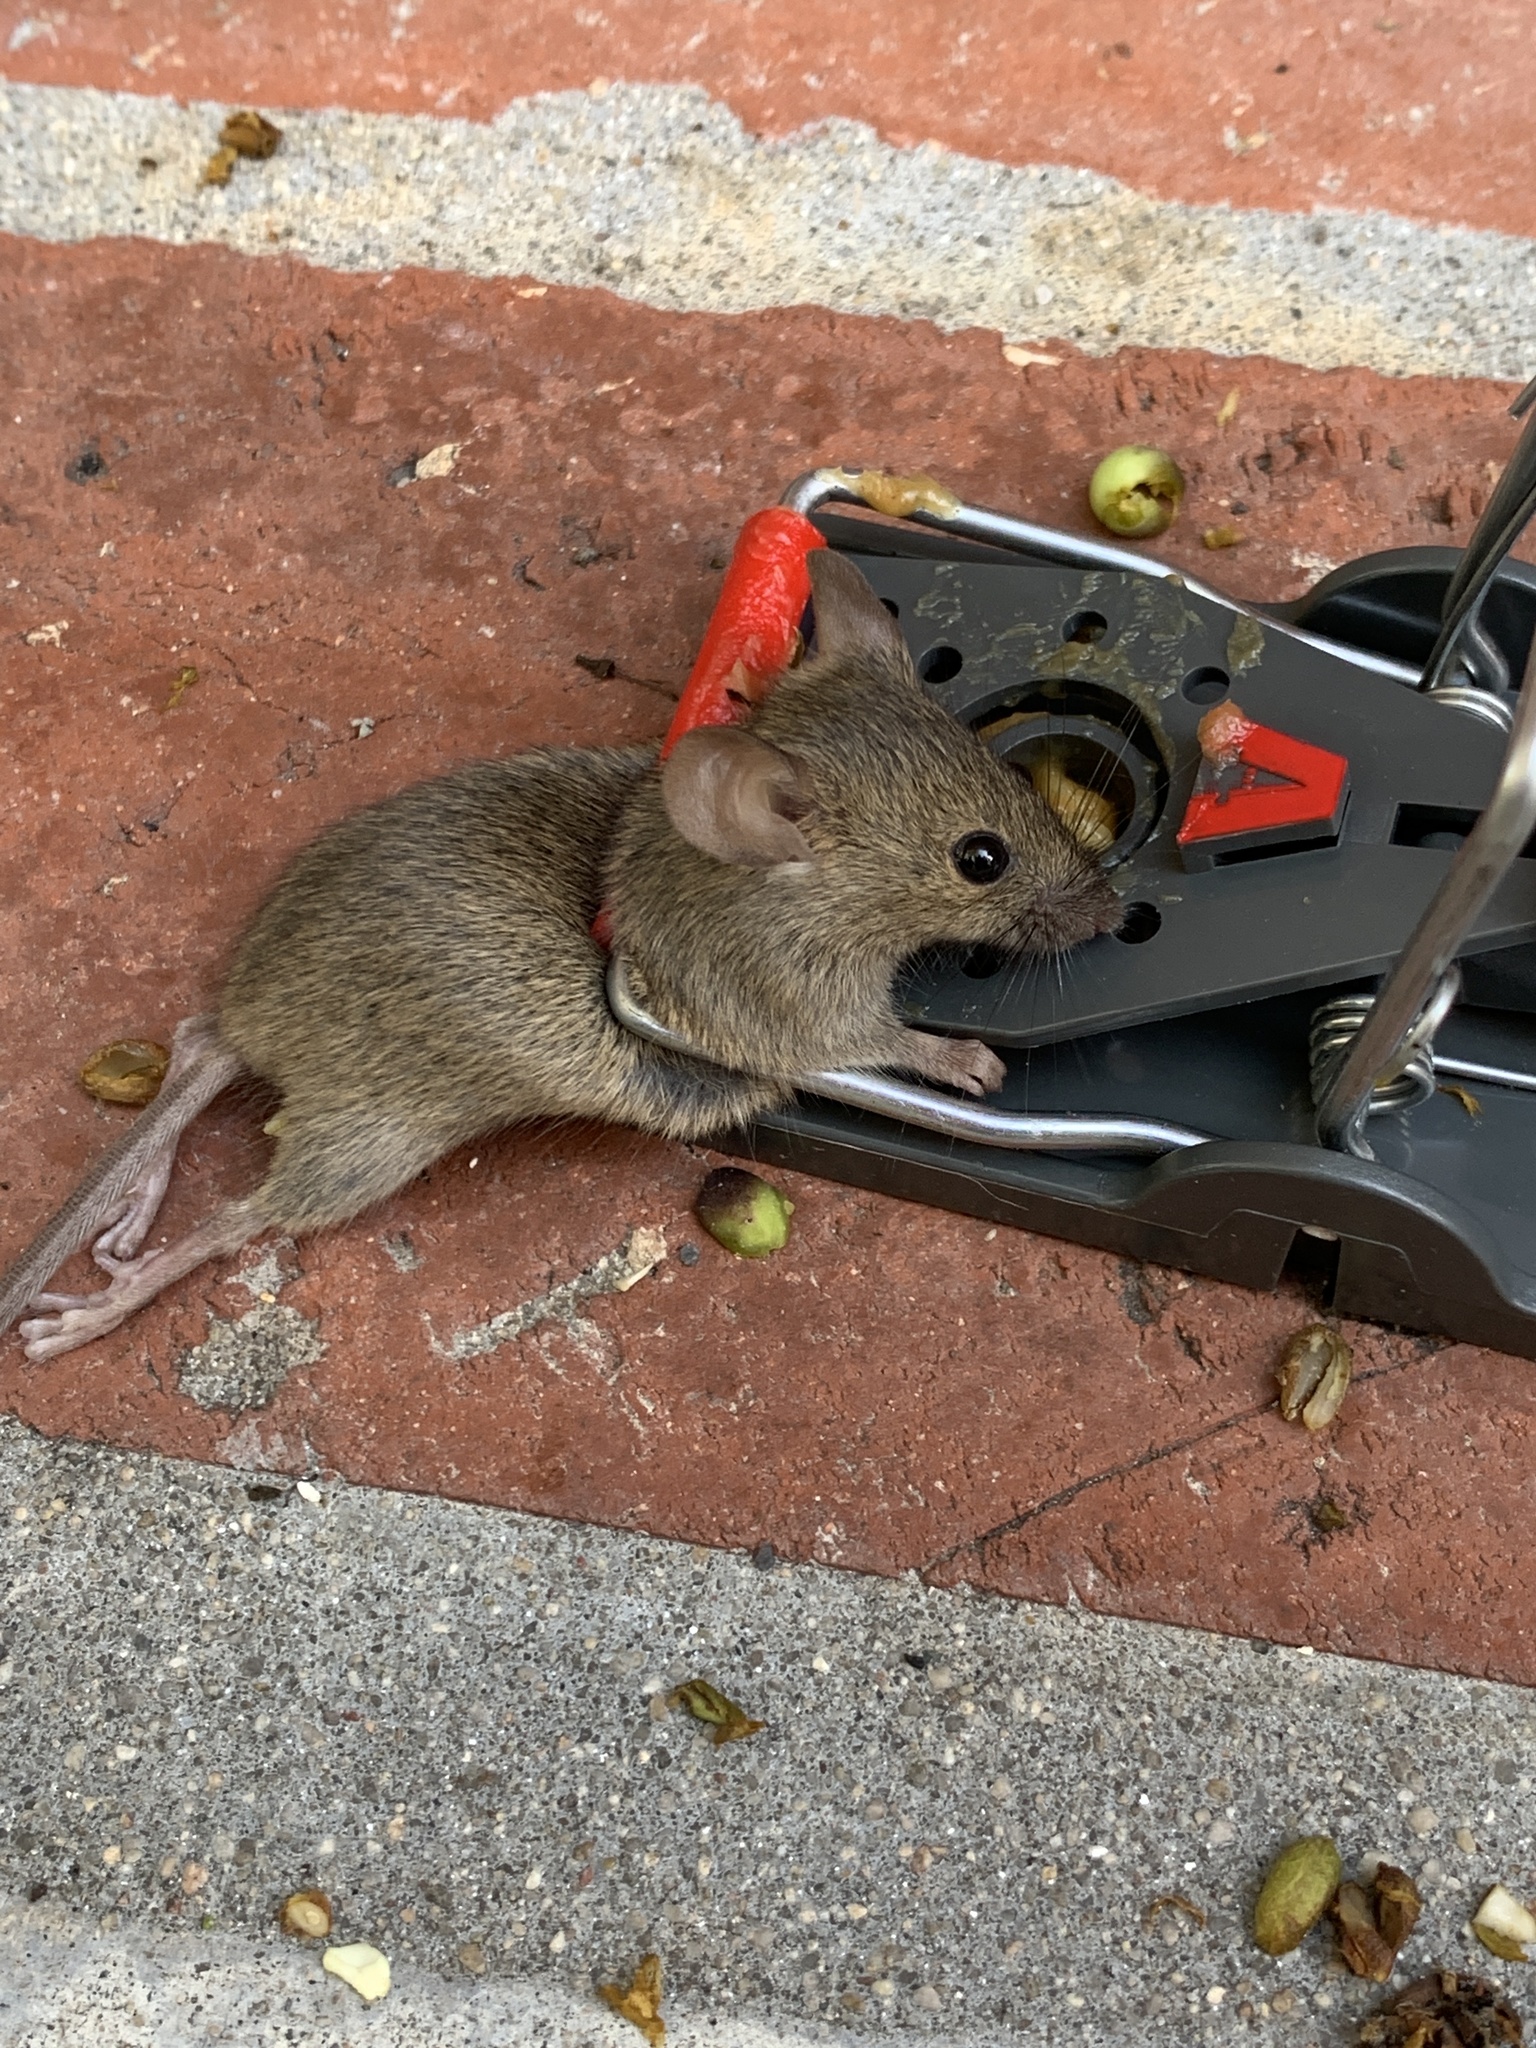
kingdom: Animalia
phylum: Chordata
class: Mammalia
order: Rodentia
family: Muridae
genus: Mus
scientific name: Mus musculus
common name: House mouse
